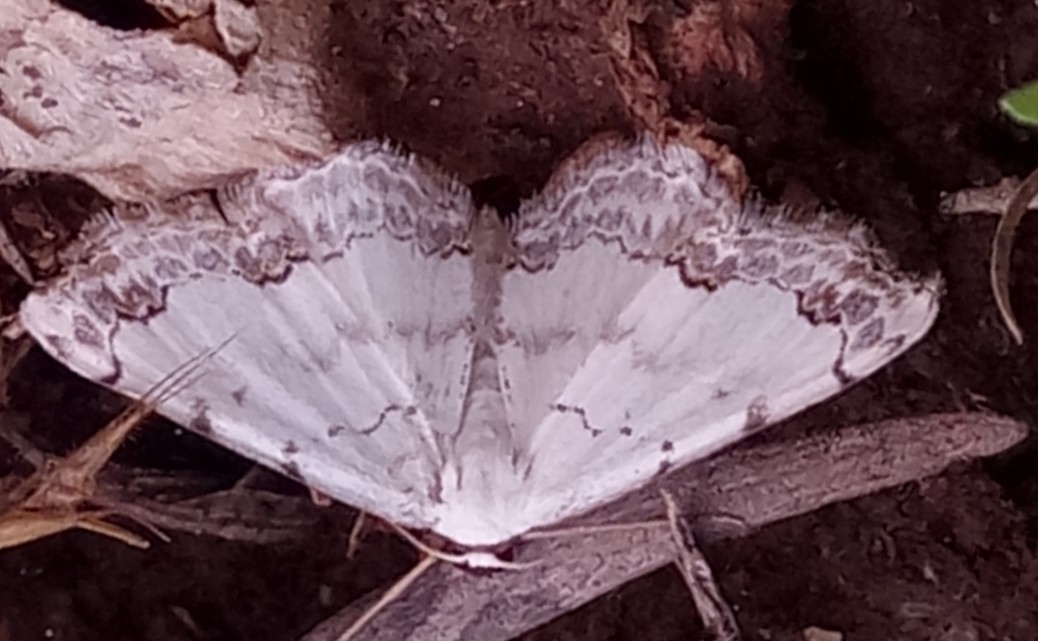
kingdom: Animalia
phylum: Arthropoda
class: Insecta
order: Lepidoptera
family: Geometridae
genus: Scopula
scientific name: Scopula congruata
